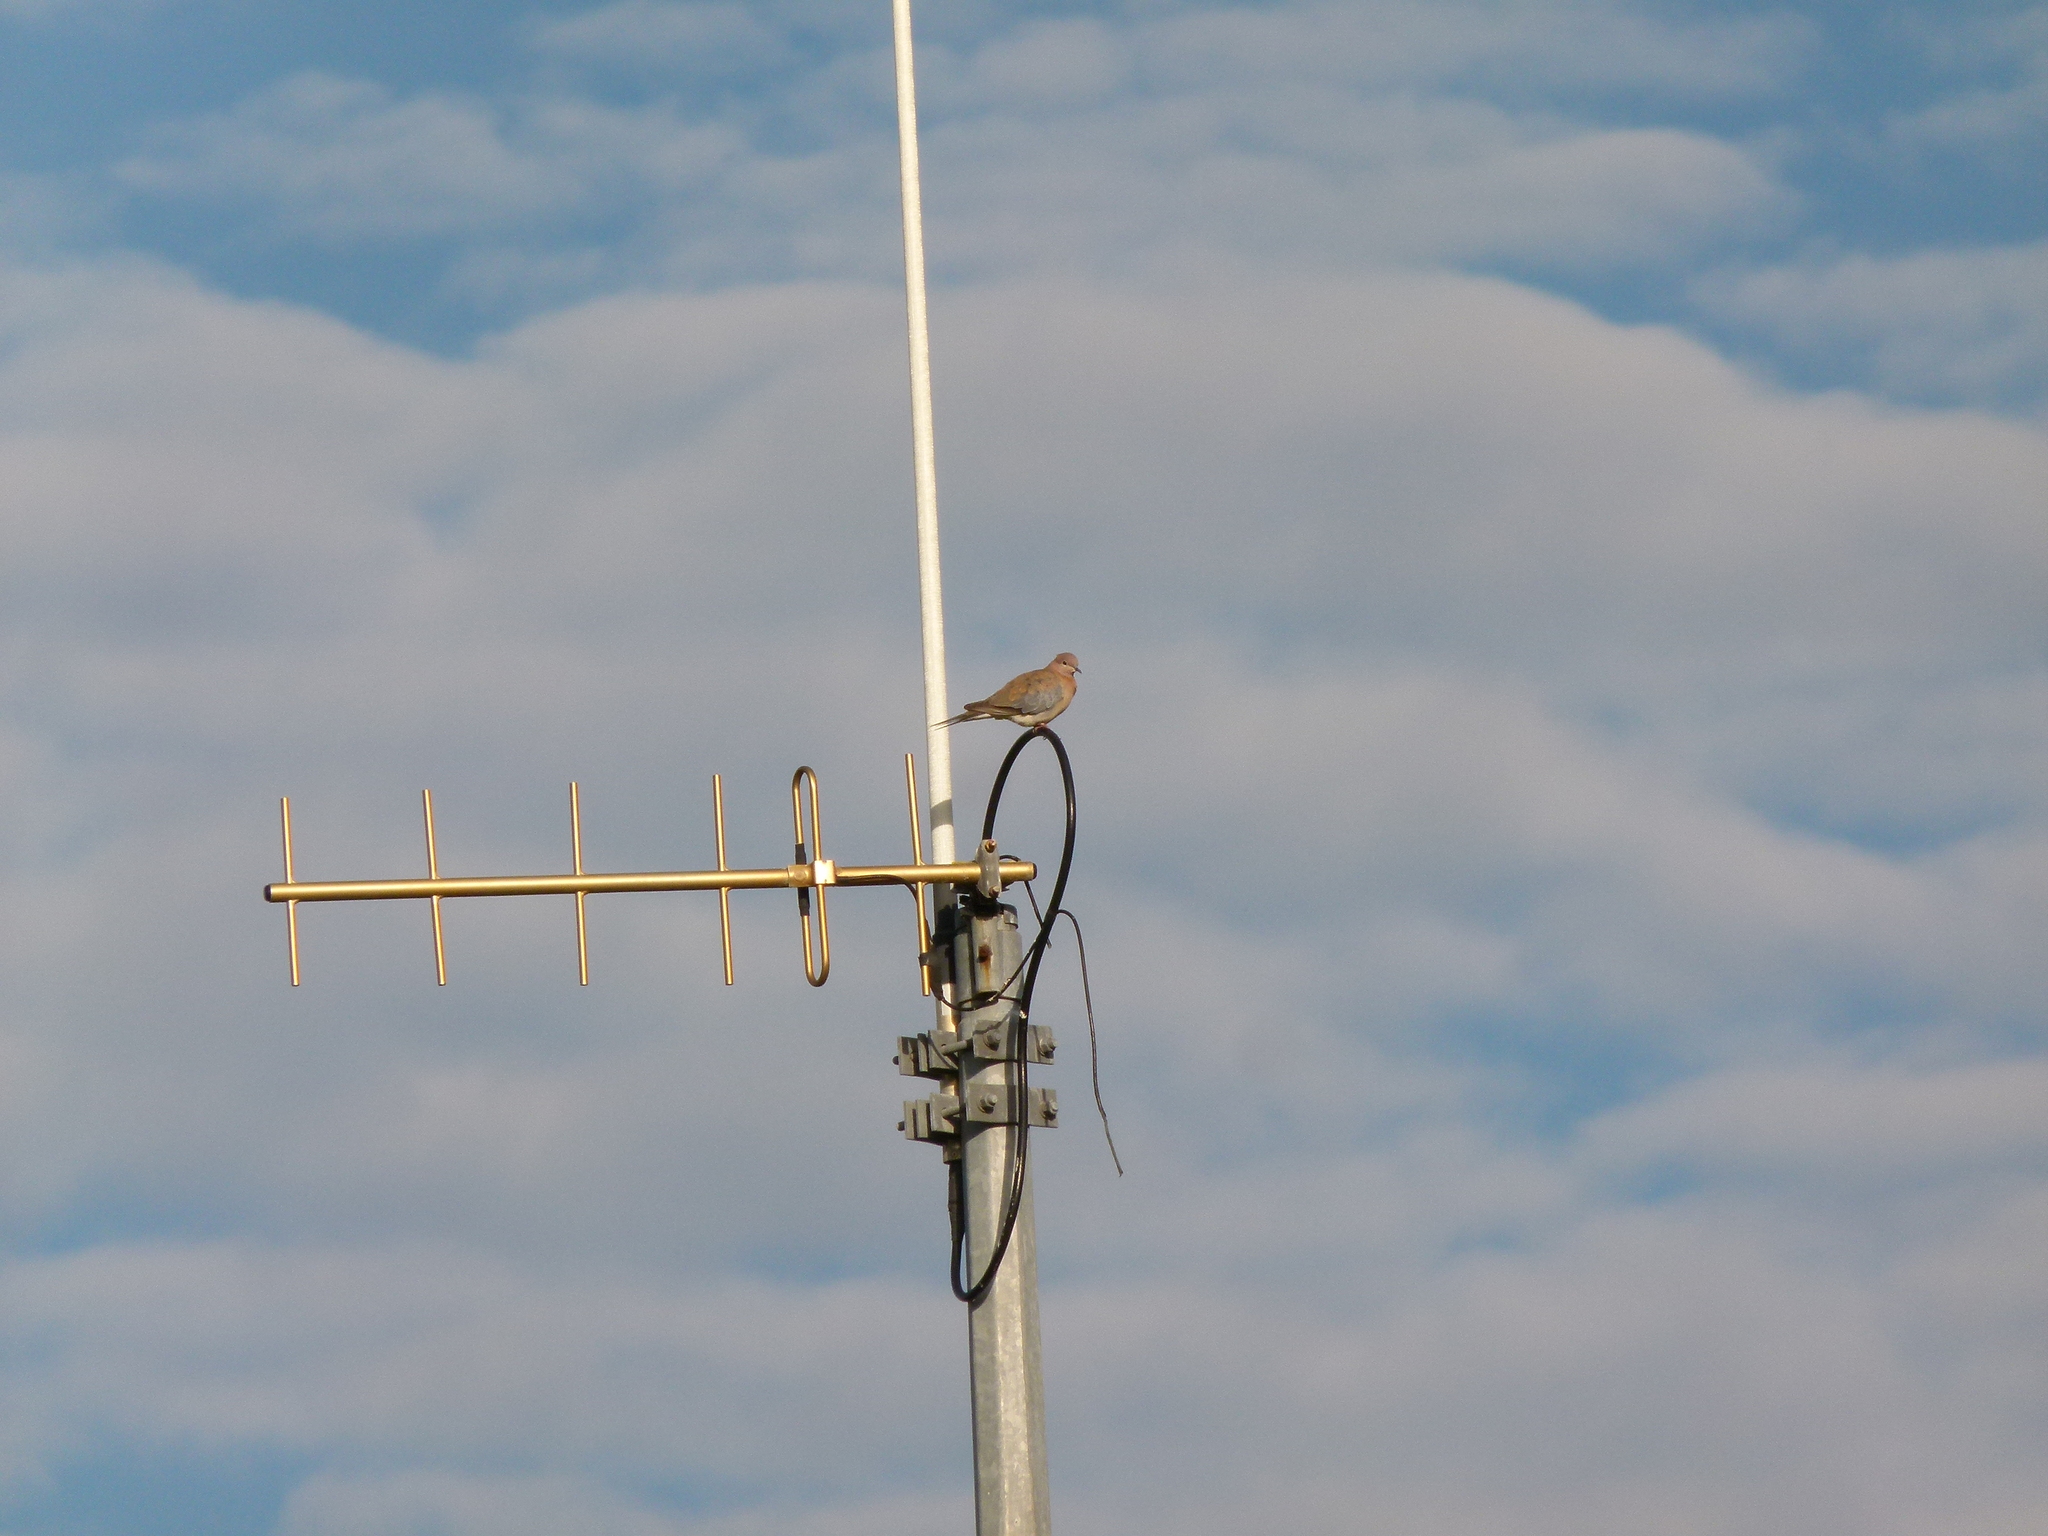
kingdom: Animalia
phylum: Chordata
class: Aves
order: Columbiformes
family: Columbidae
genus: Spilopelia
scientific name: Spilopelia senegalensis
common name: Laughing dove
